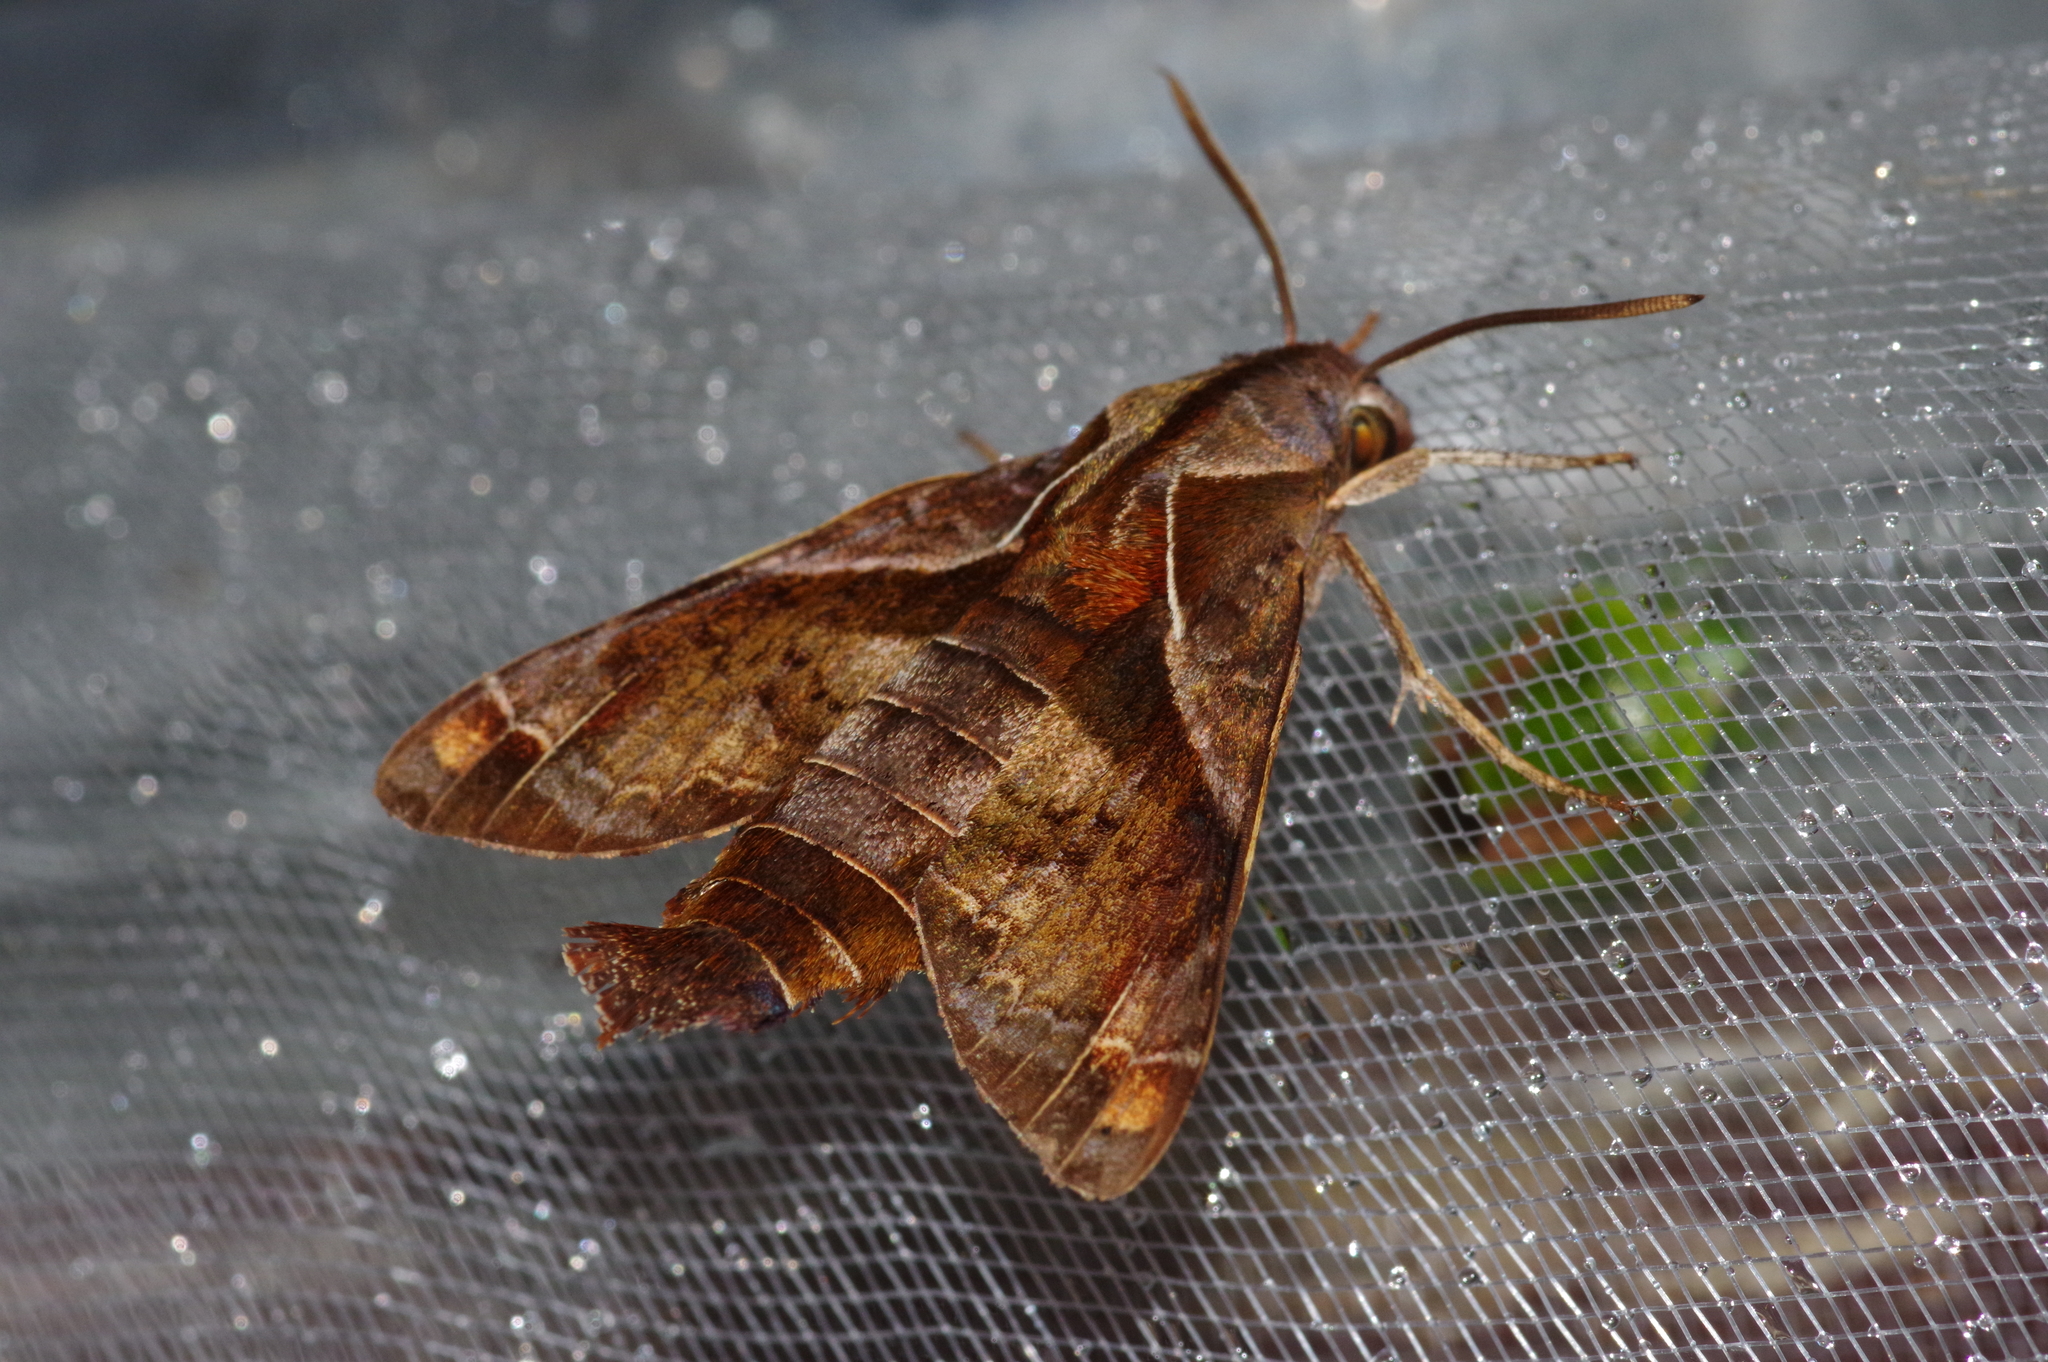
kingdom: Animalia
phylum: Arthropoda
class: Insecta
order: Lepidoptera
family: Sphingidae
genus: Macroglossum
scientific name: Macroglossum fritzei
